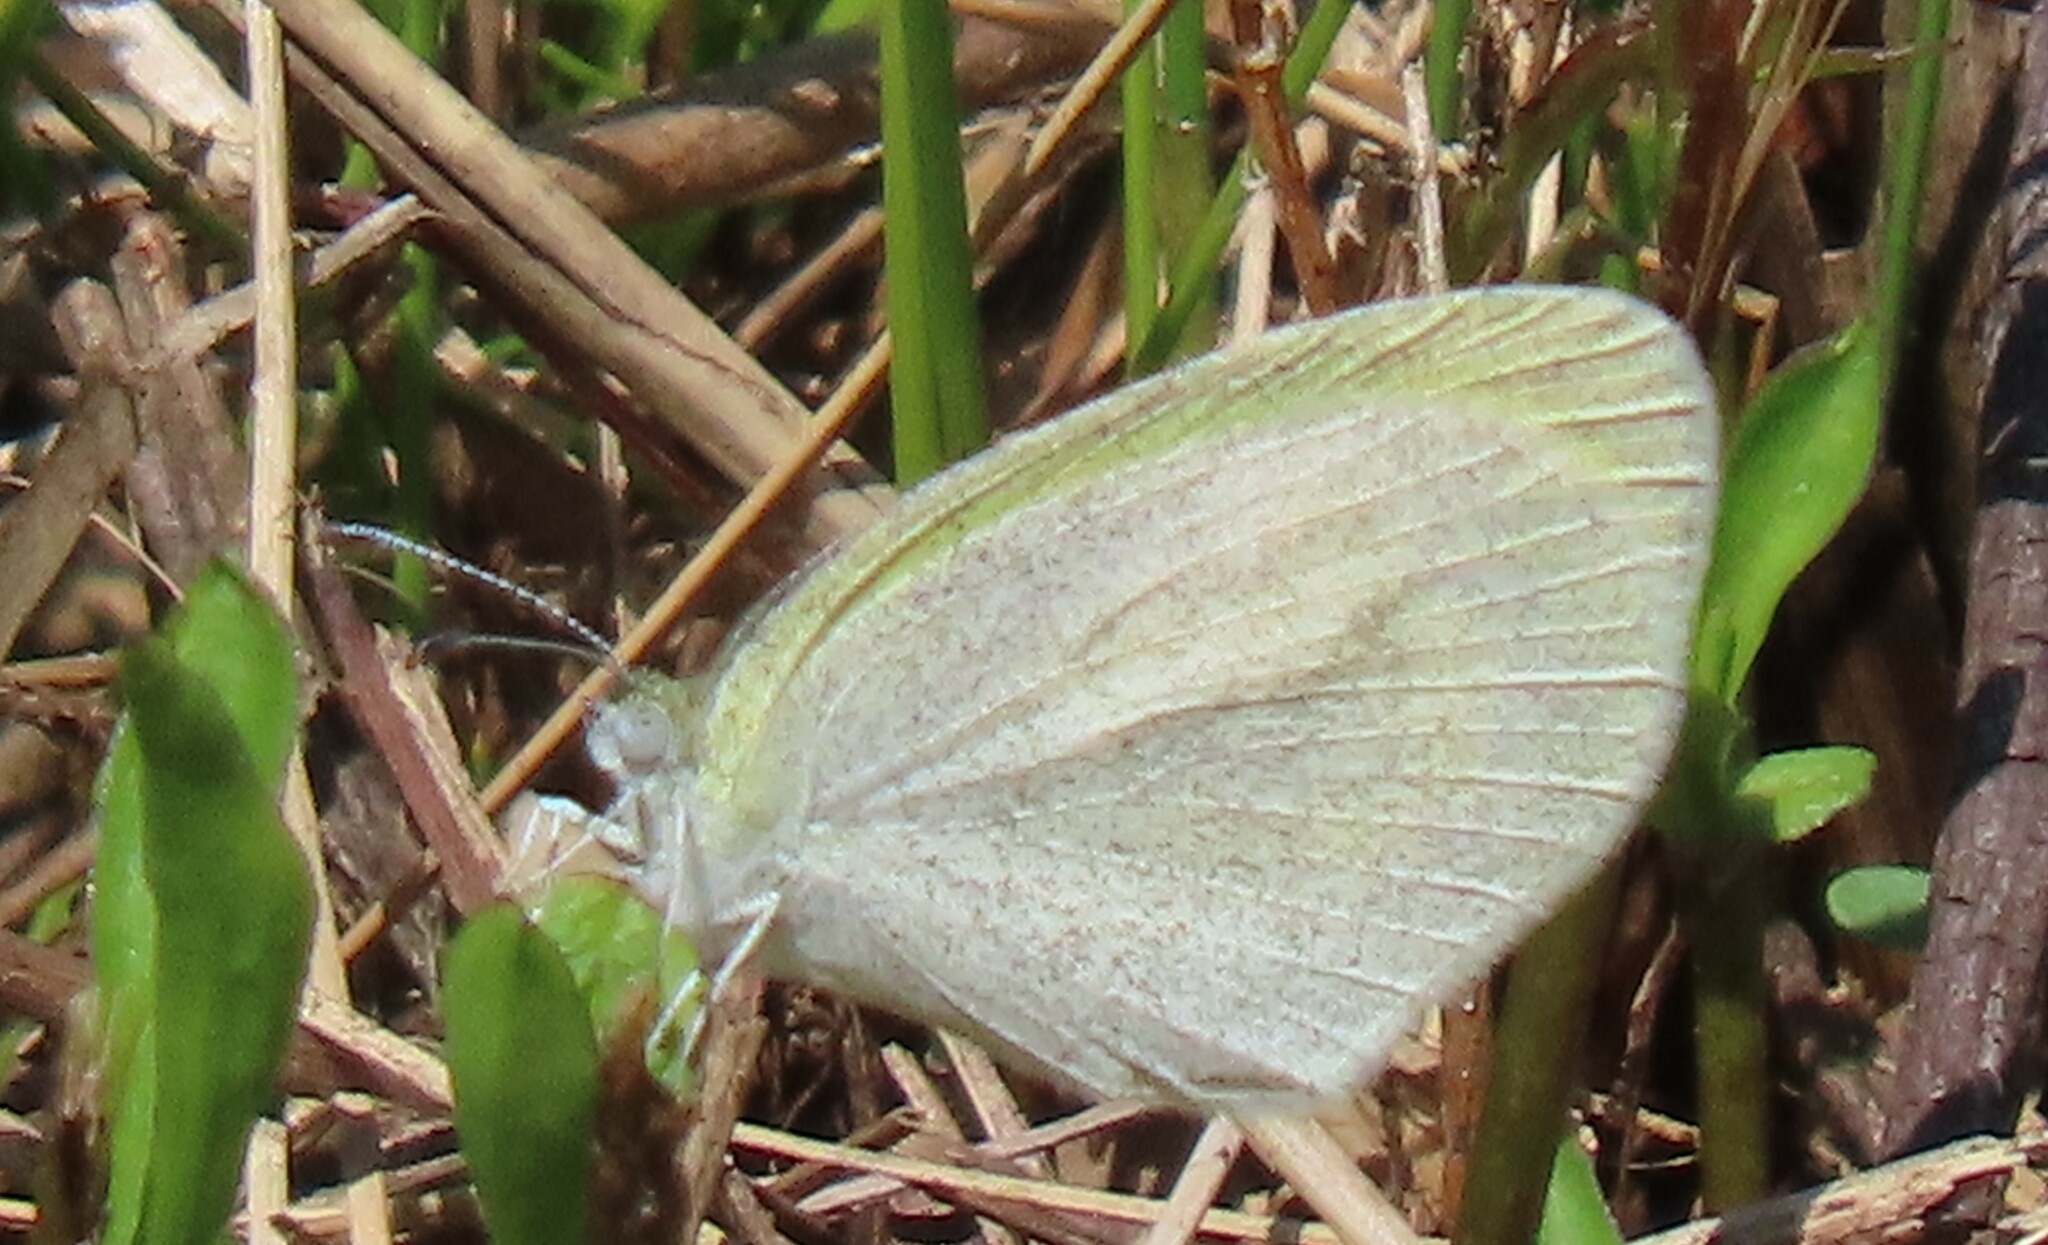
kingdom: Animalia
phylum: Arthropoda
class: Insecta
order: Lepidoptera
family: Pieridae
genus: Eurema
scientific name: Eurema daira
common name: Barred sulphur
